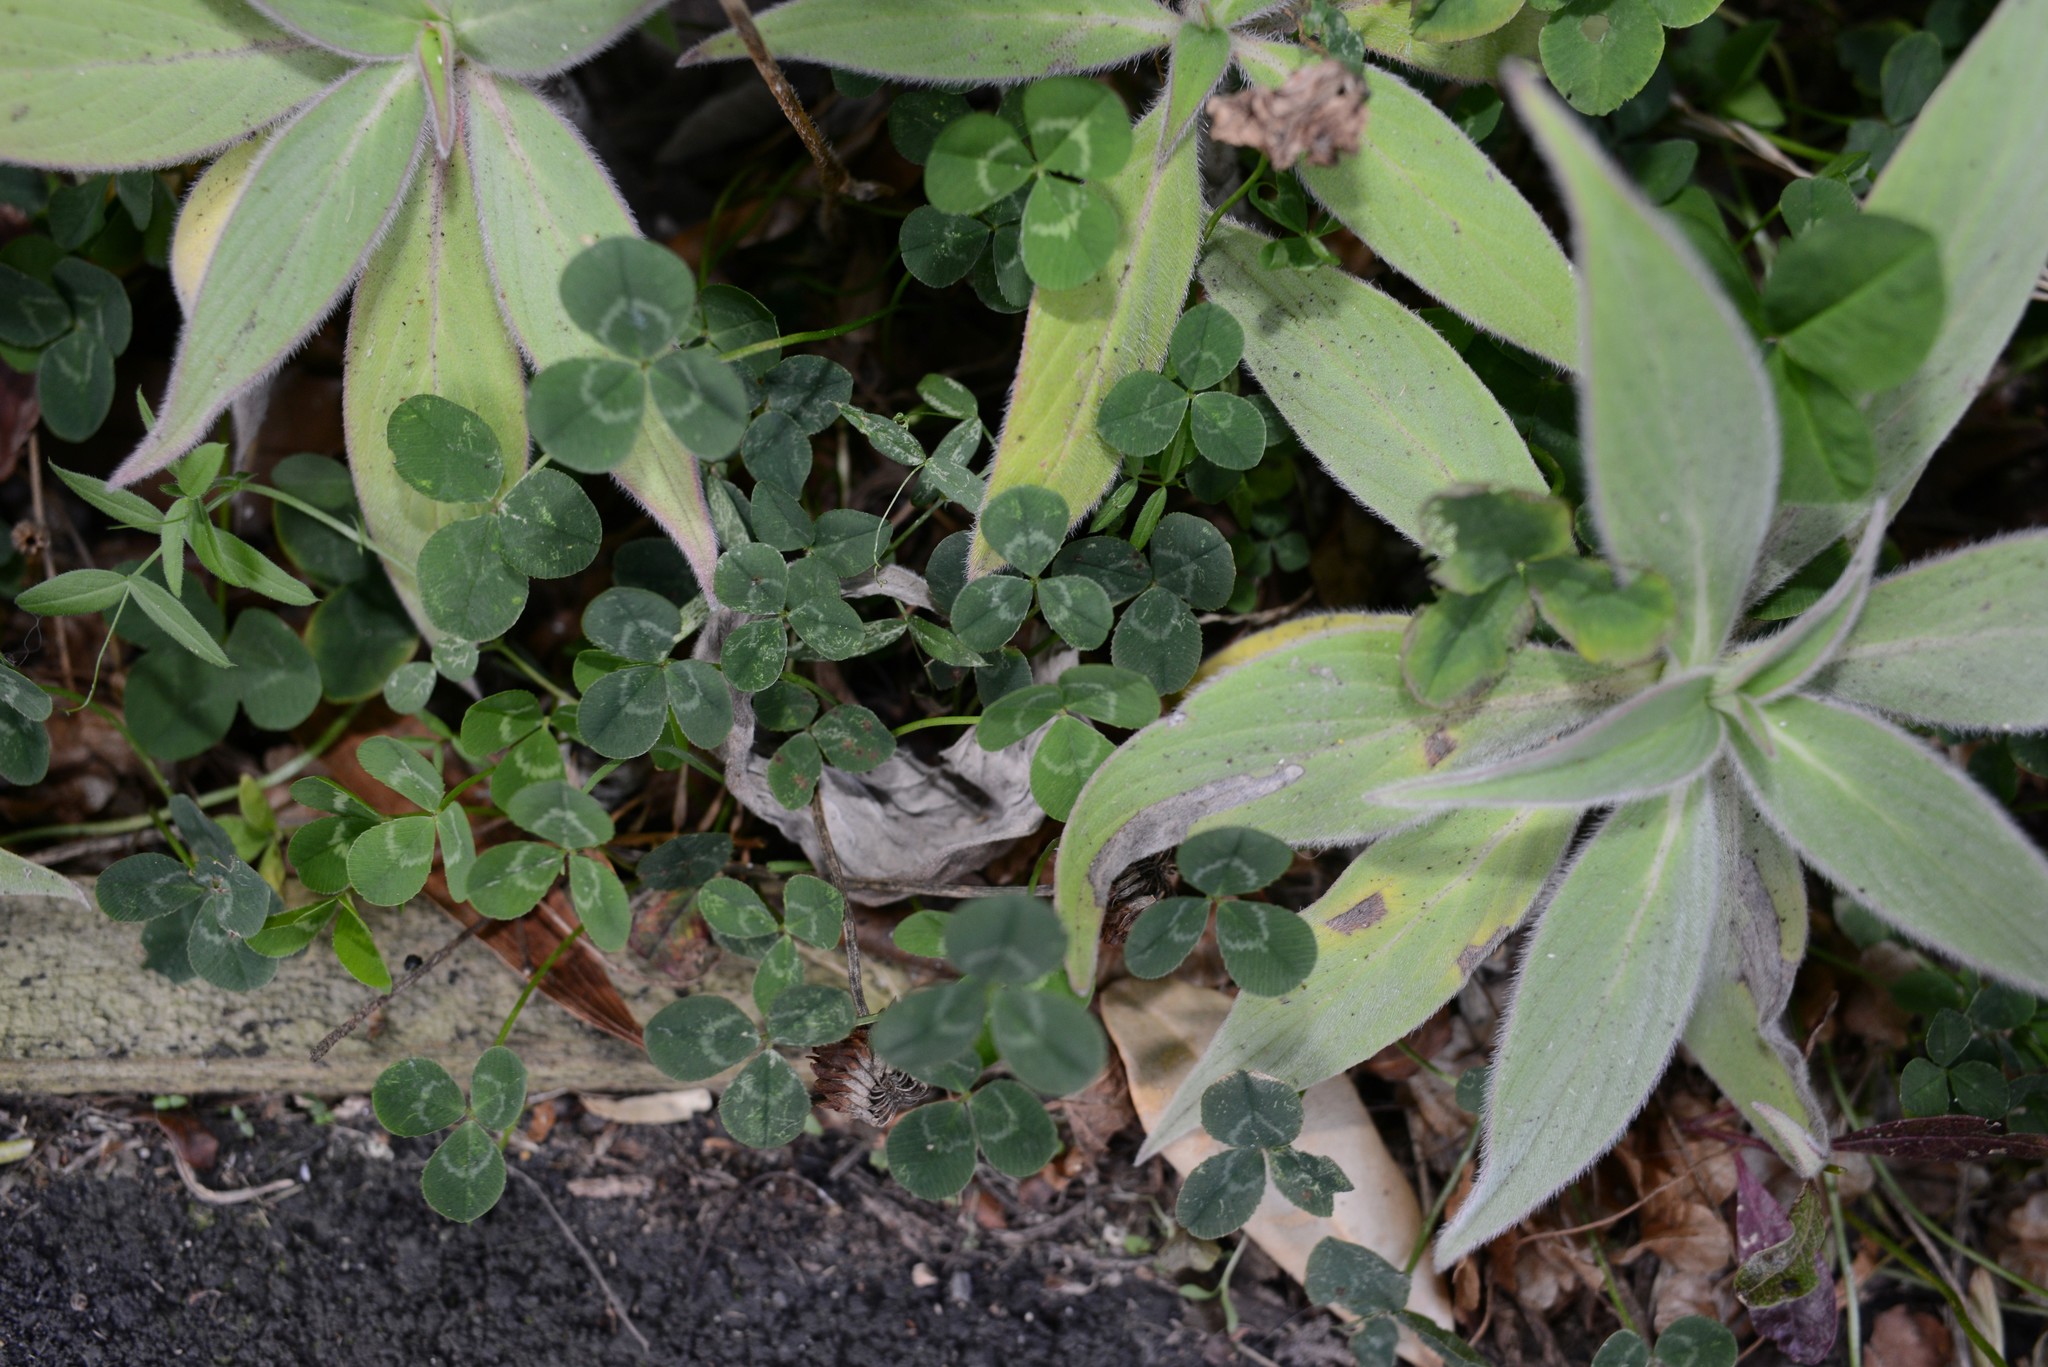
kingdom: Plantae
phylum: Tracheophyta
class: Magnoliopsida
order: Fabales
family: Fabaceae
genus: Trifolium
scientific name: Trifolium repens
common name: White clover
